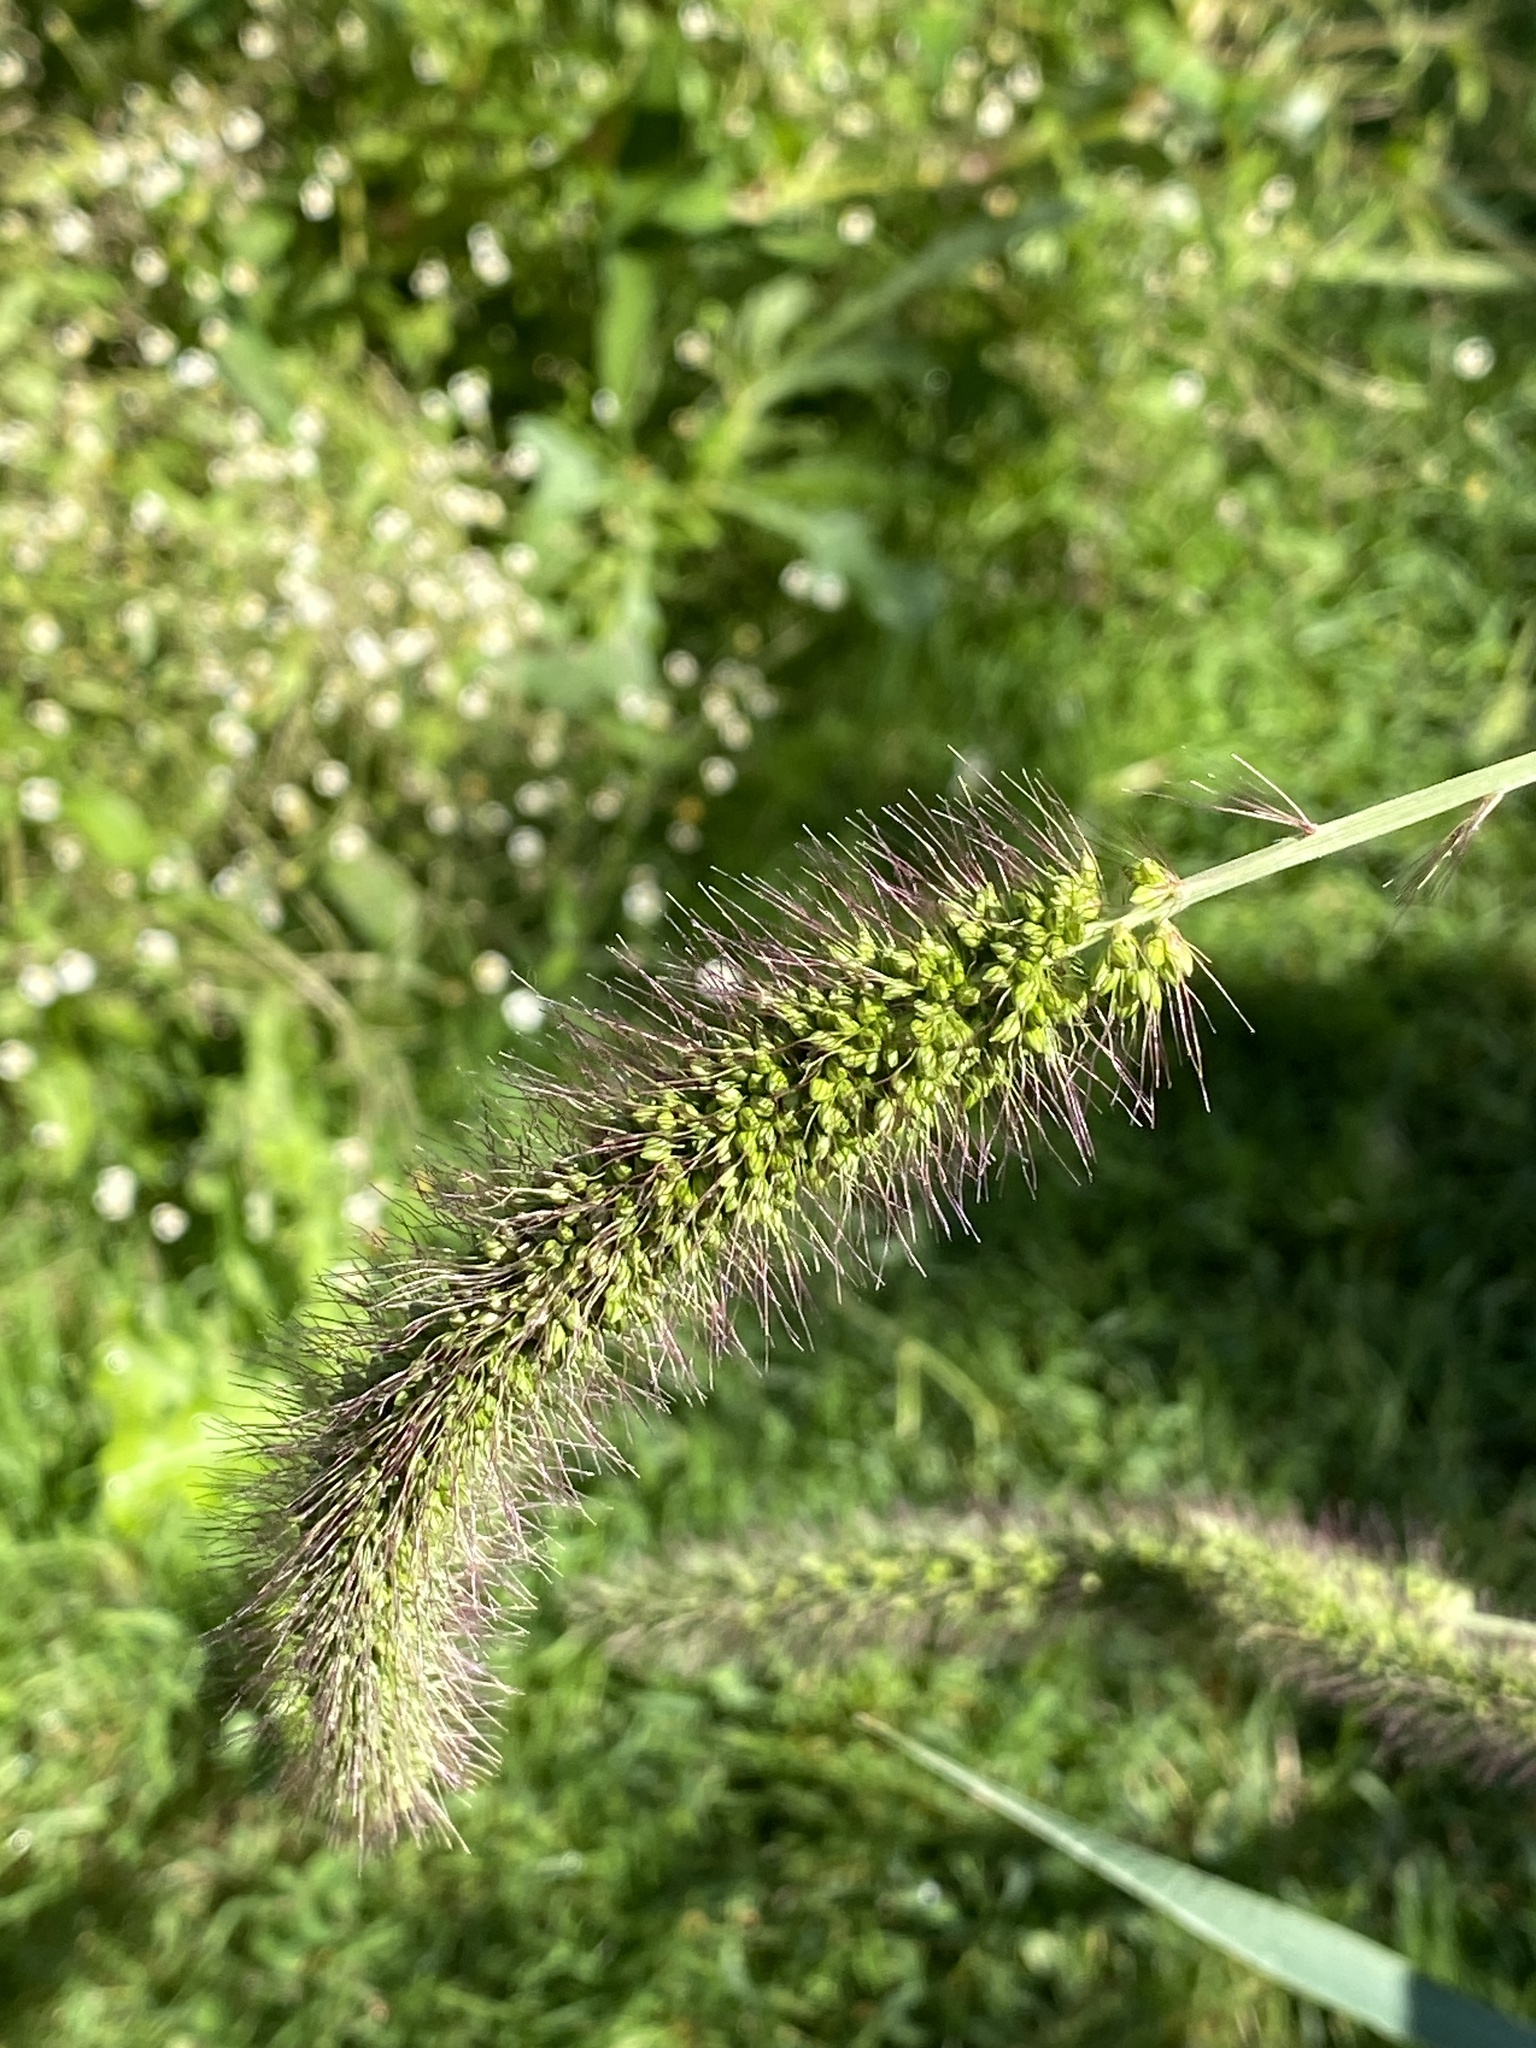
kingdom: Plantae
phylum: Tracheophyta
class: Liliopsida
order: Poales
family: Poaceae
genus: Setaria
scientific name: Setaria faberi
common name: Nodding bristle-grass
